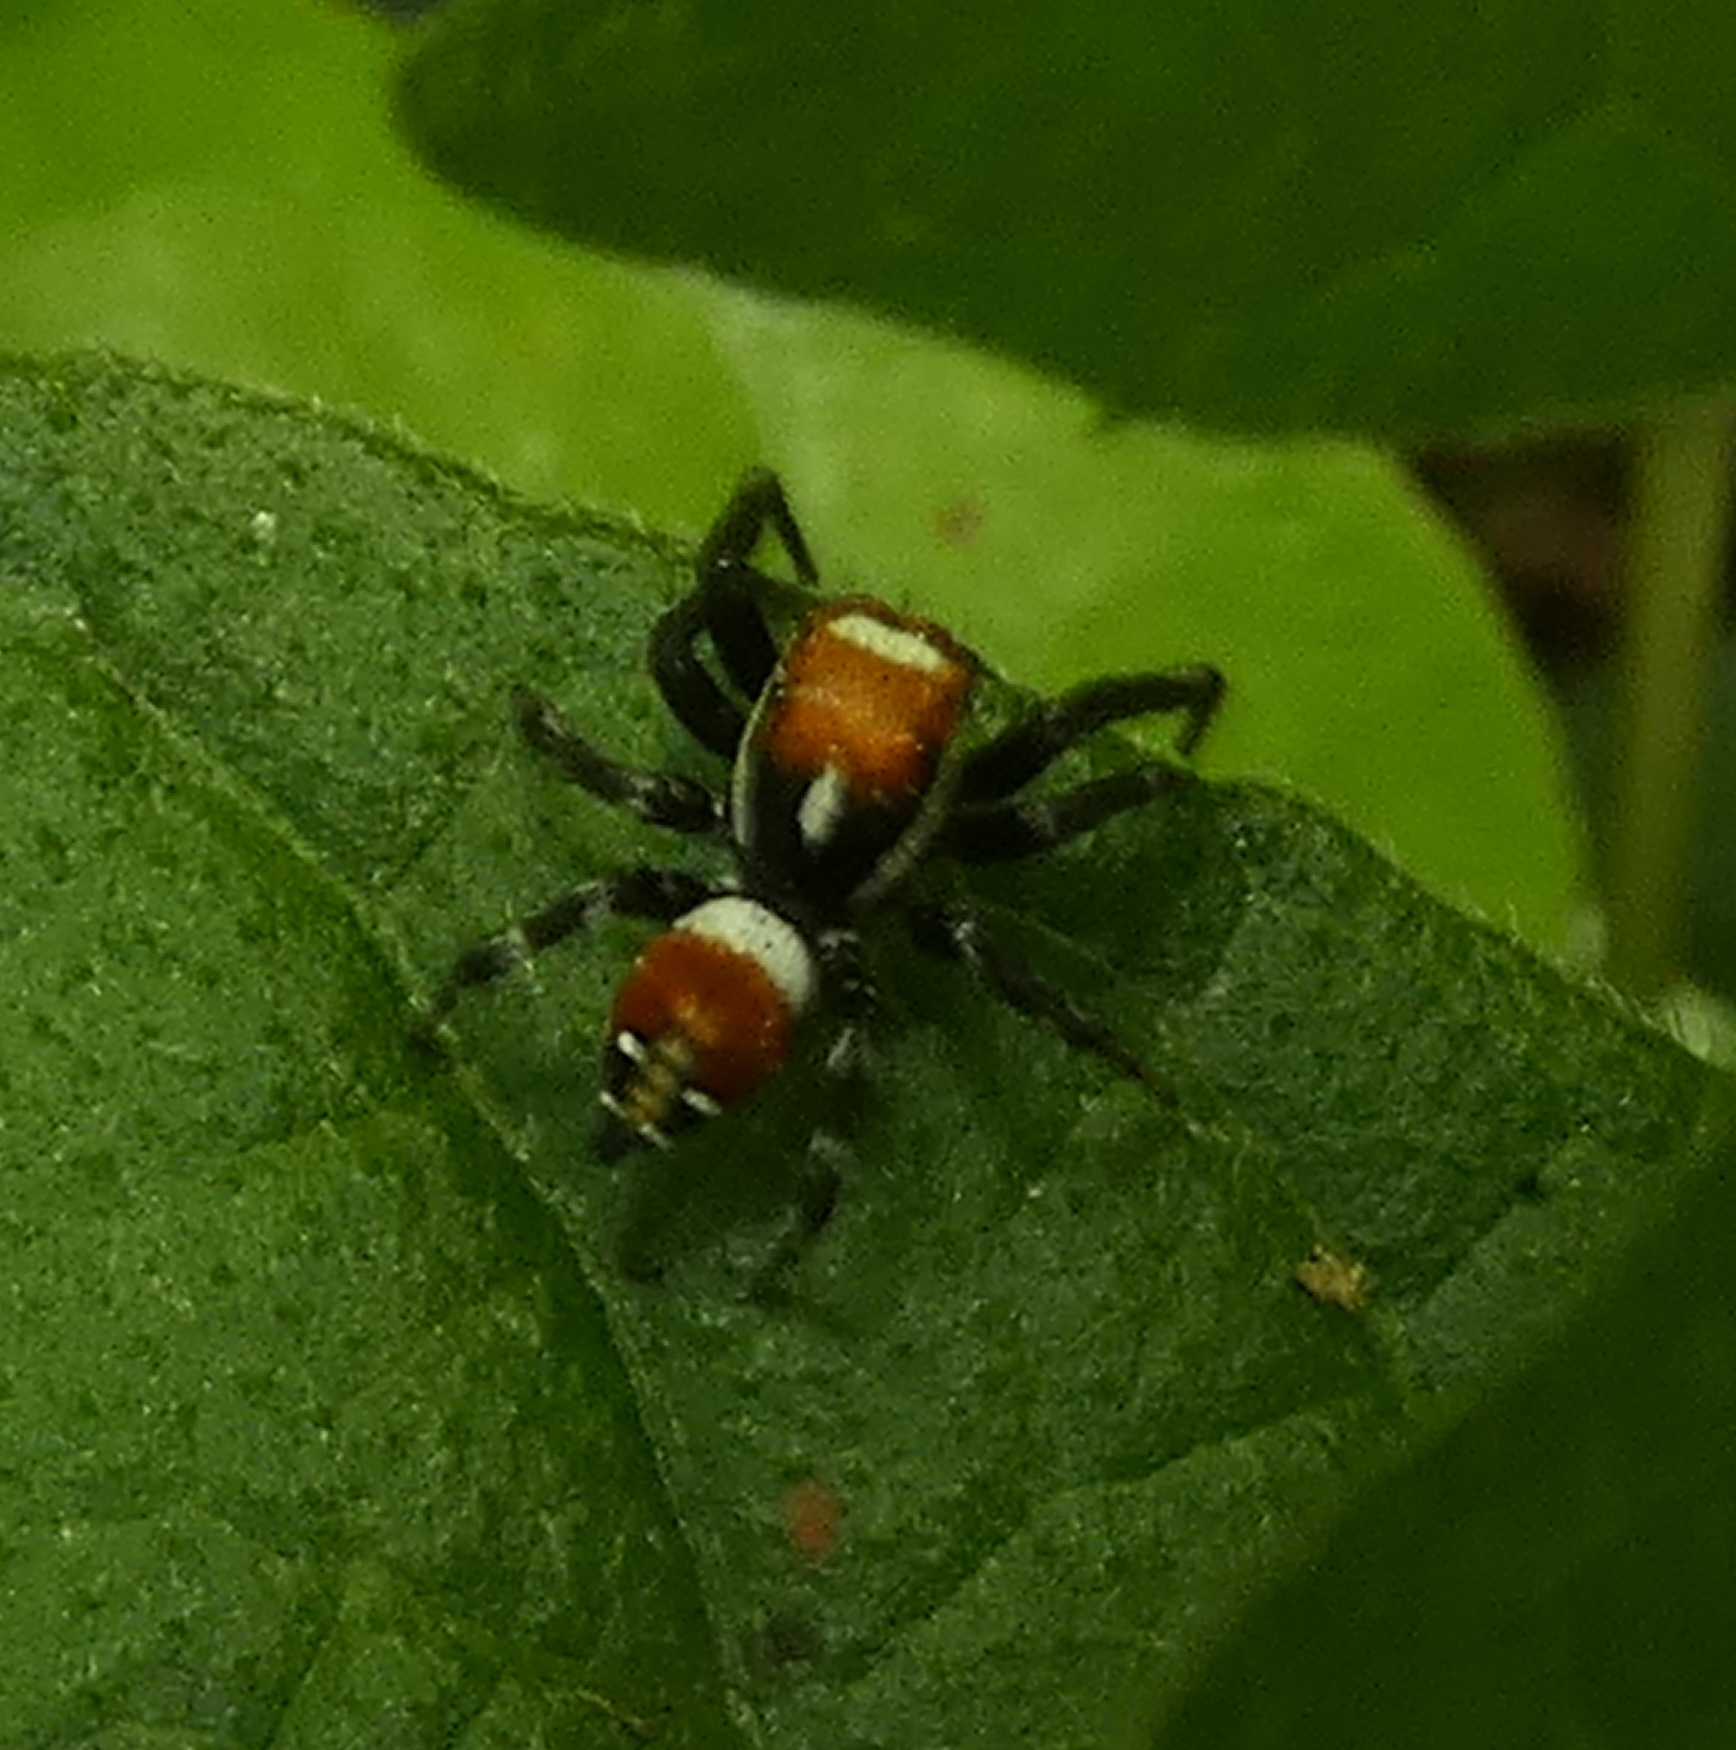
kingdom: Animalia
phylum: Arthropoda
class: Arachnida
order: Araneae
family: Salticidae
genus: Nycerella
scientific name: Nycerella aprica
